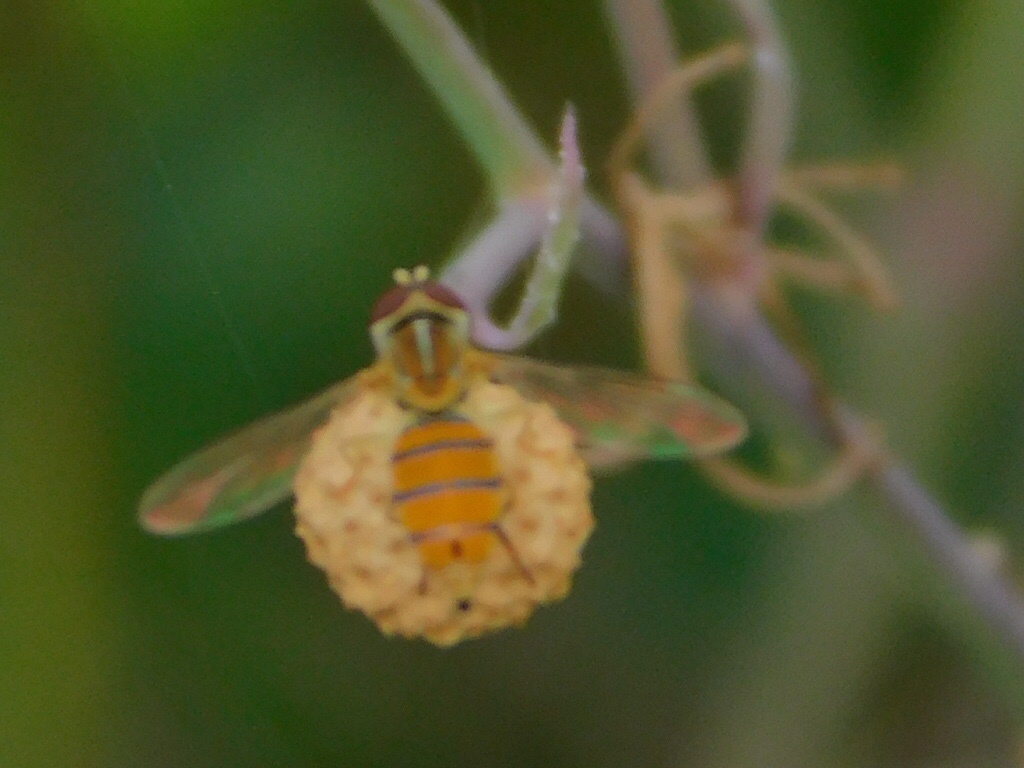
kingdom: Animalia
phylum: Arthropoda
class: Insecta
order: Diptera
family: Syrphidae
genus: Toxomerus
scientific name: Toxomerus corbis
